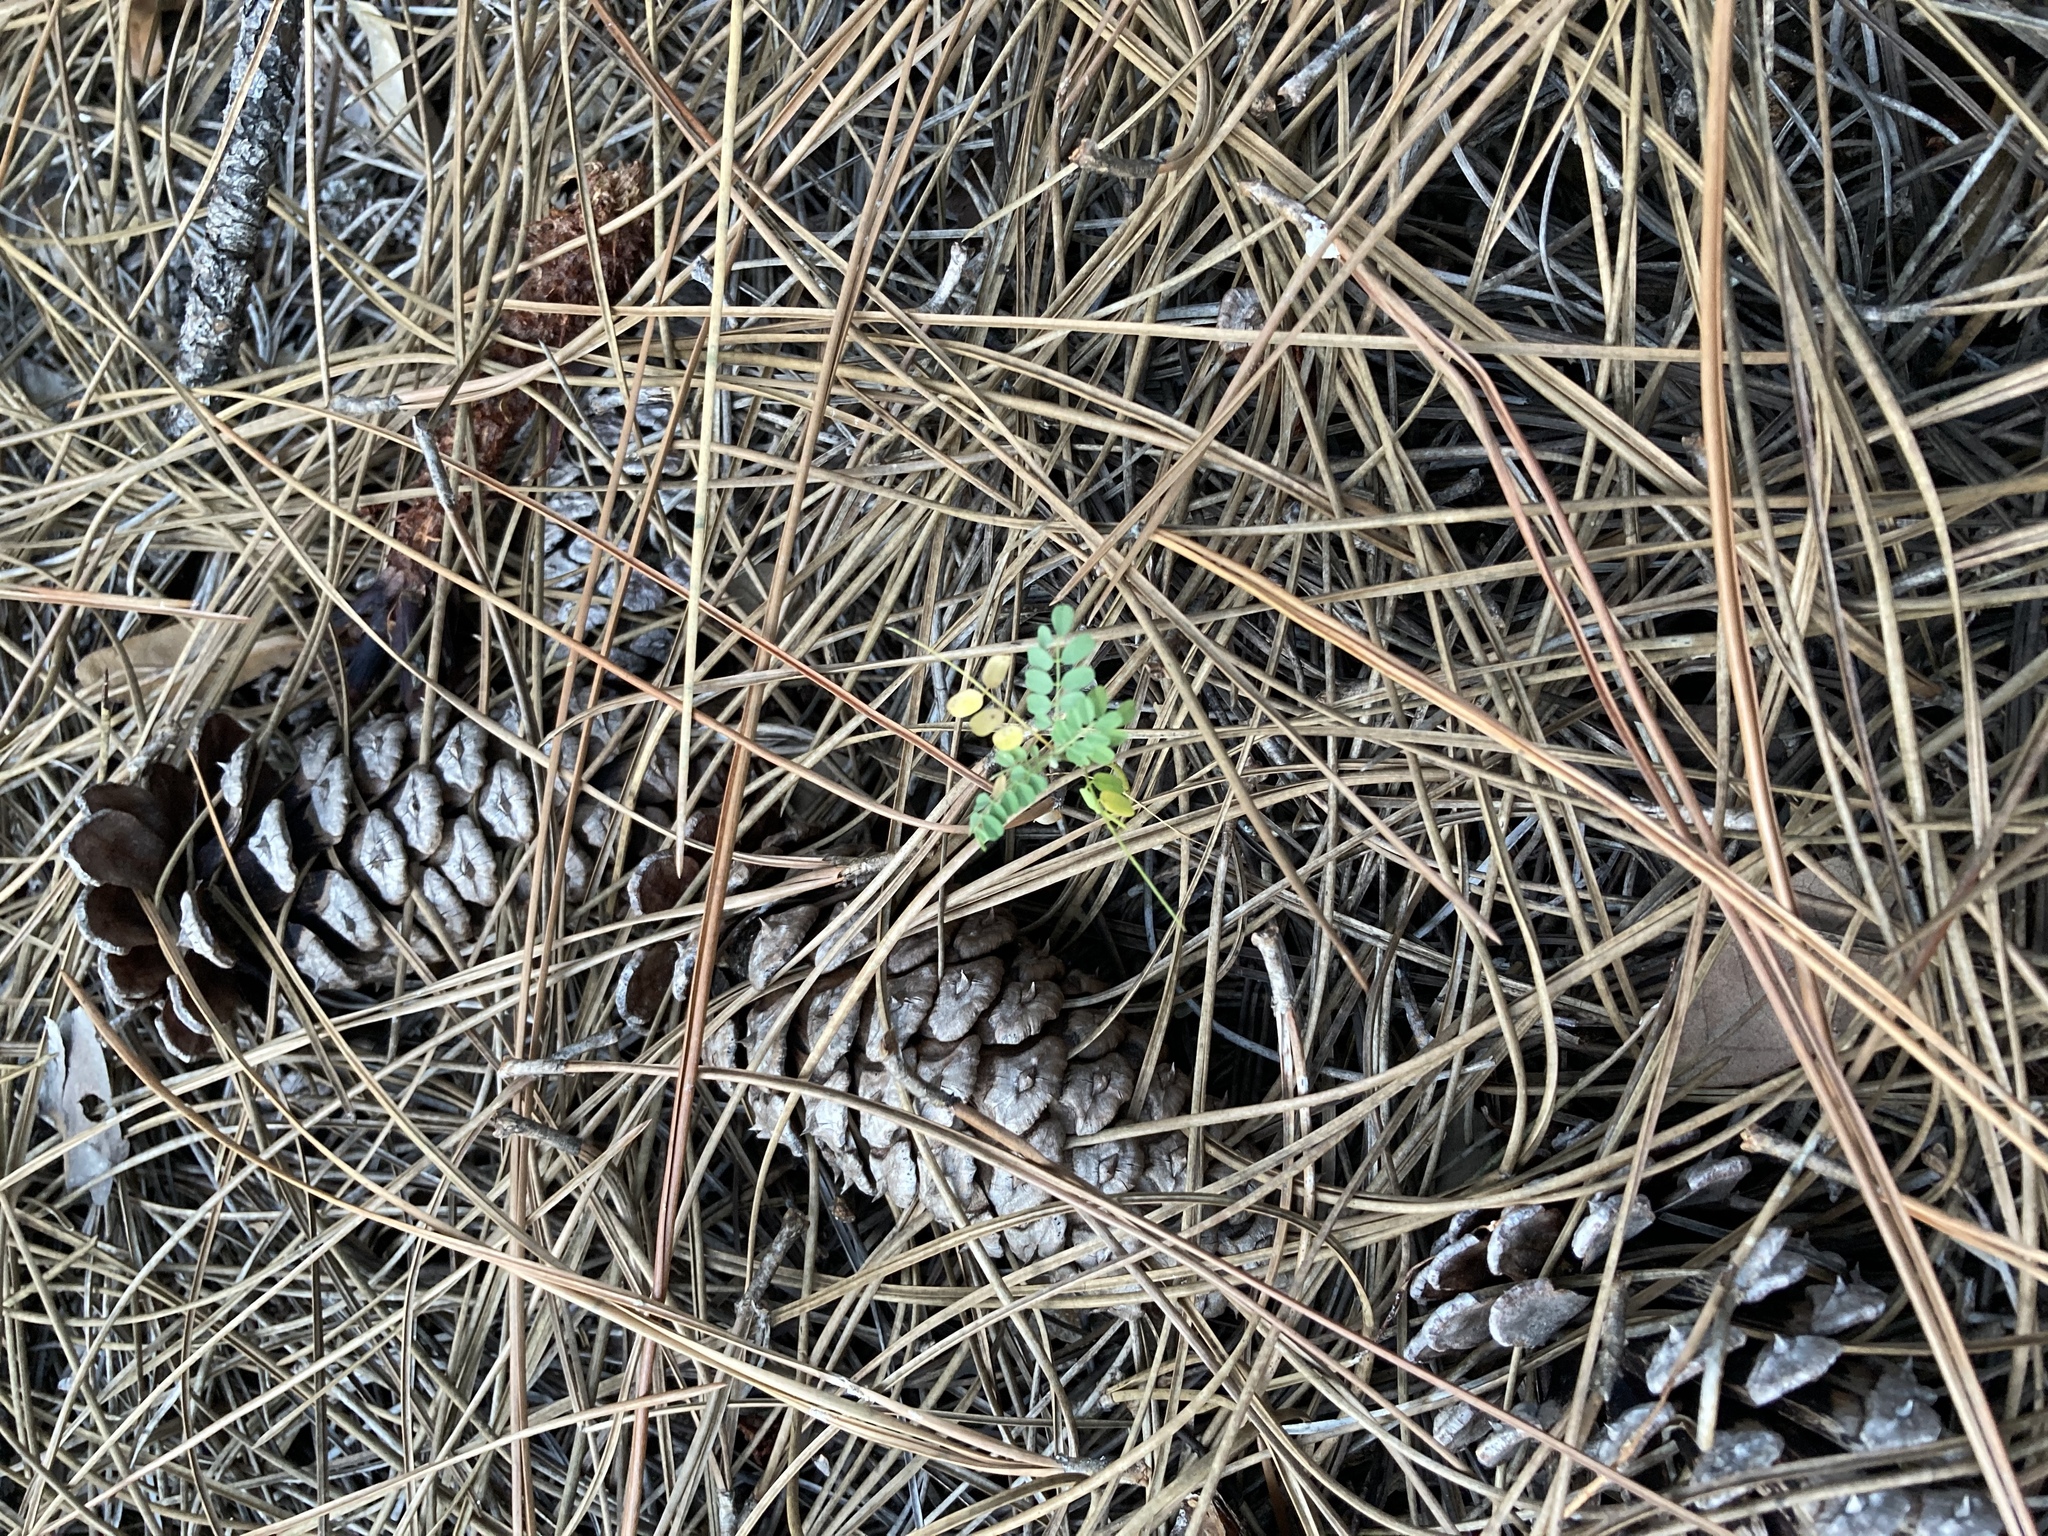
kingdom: Plantae
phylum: Tracheophyta
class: Magnoliopsida
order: Fabales
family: Fabaceae
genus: Abrus
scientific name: Abrus precatorius
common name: Rosarypea
